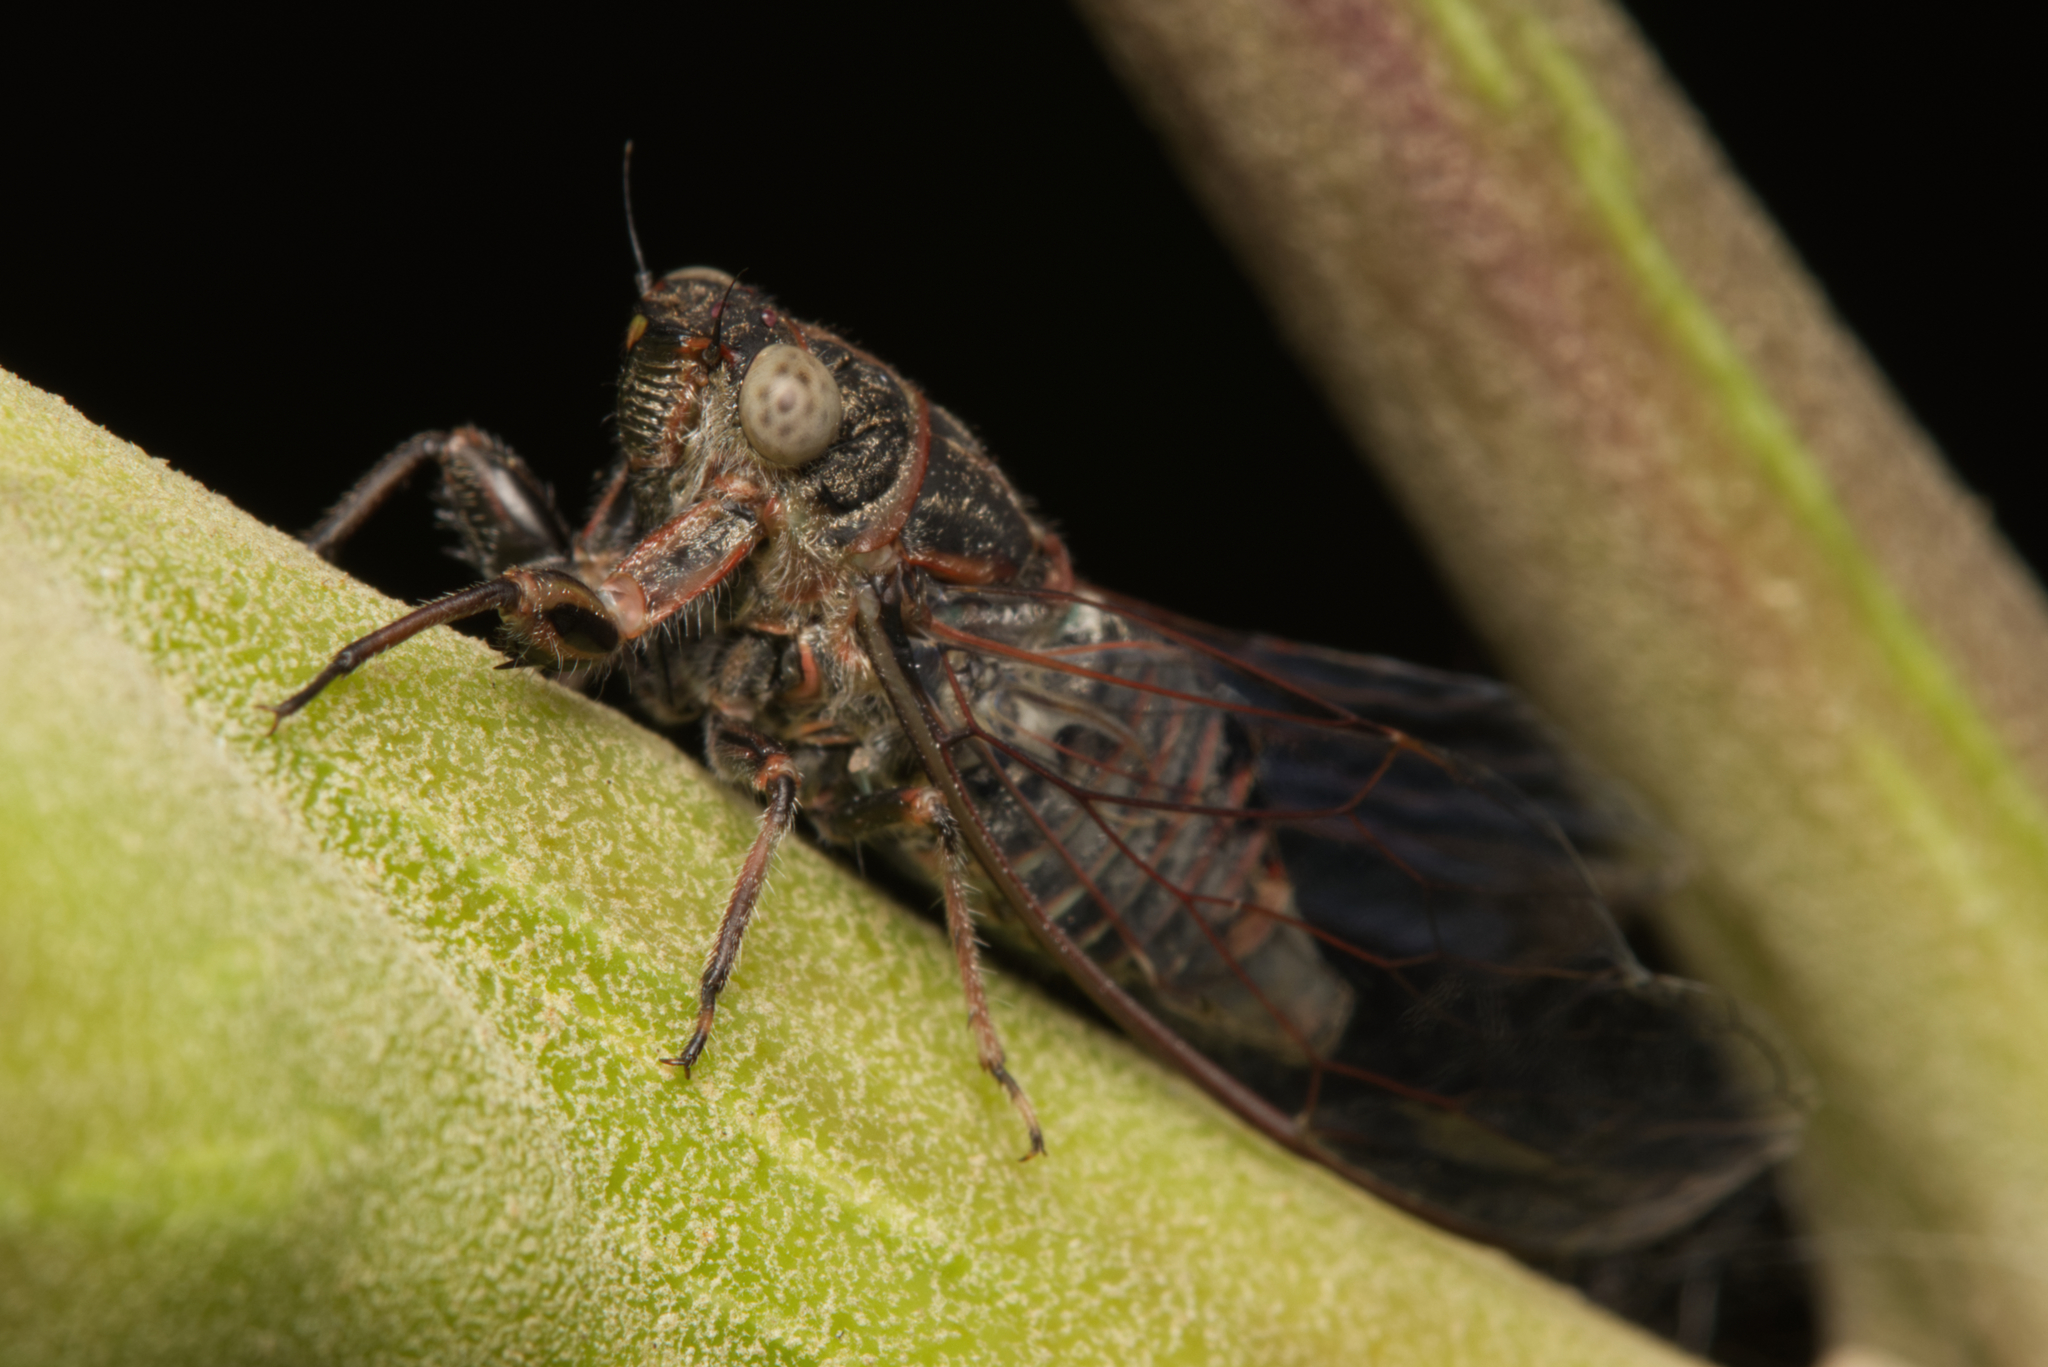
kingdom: Animalia
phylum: Arthropoda
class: Insecta
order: Hemiptera
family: Cicadidae
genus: Atrapsalta
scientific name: Atrapsalta corticina
